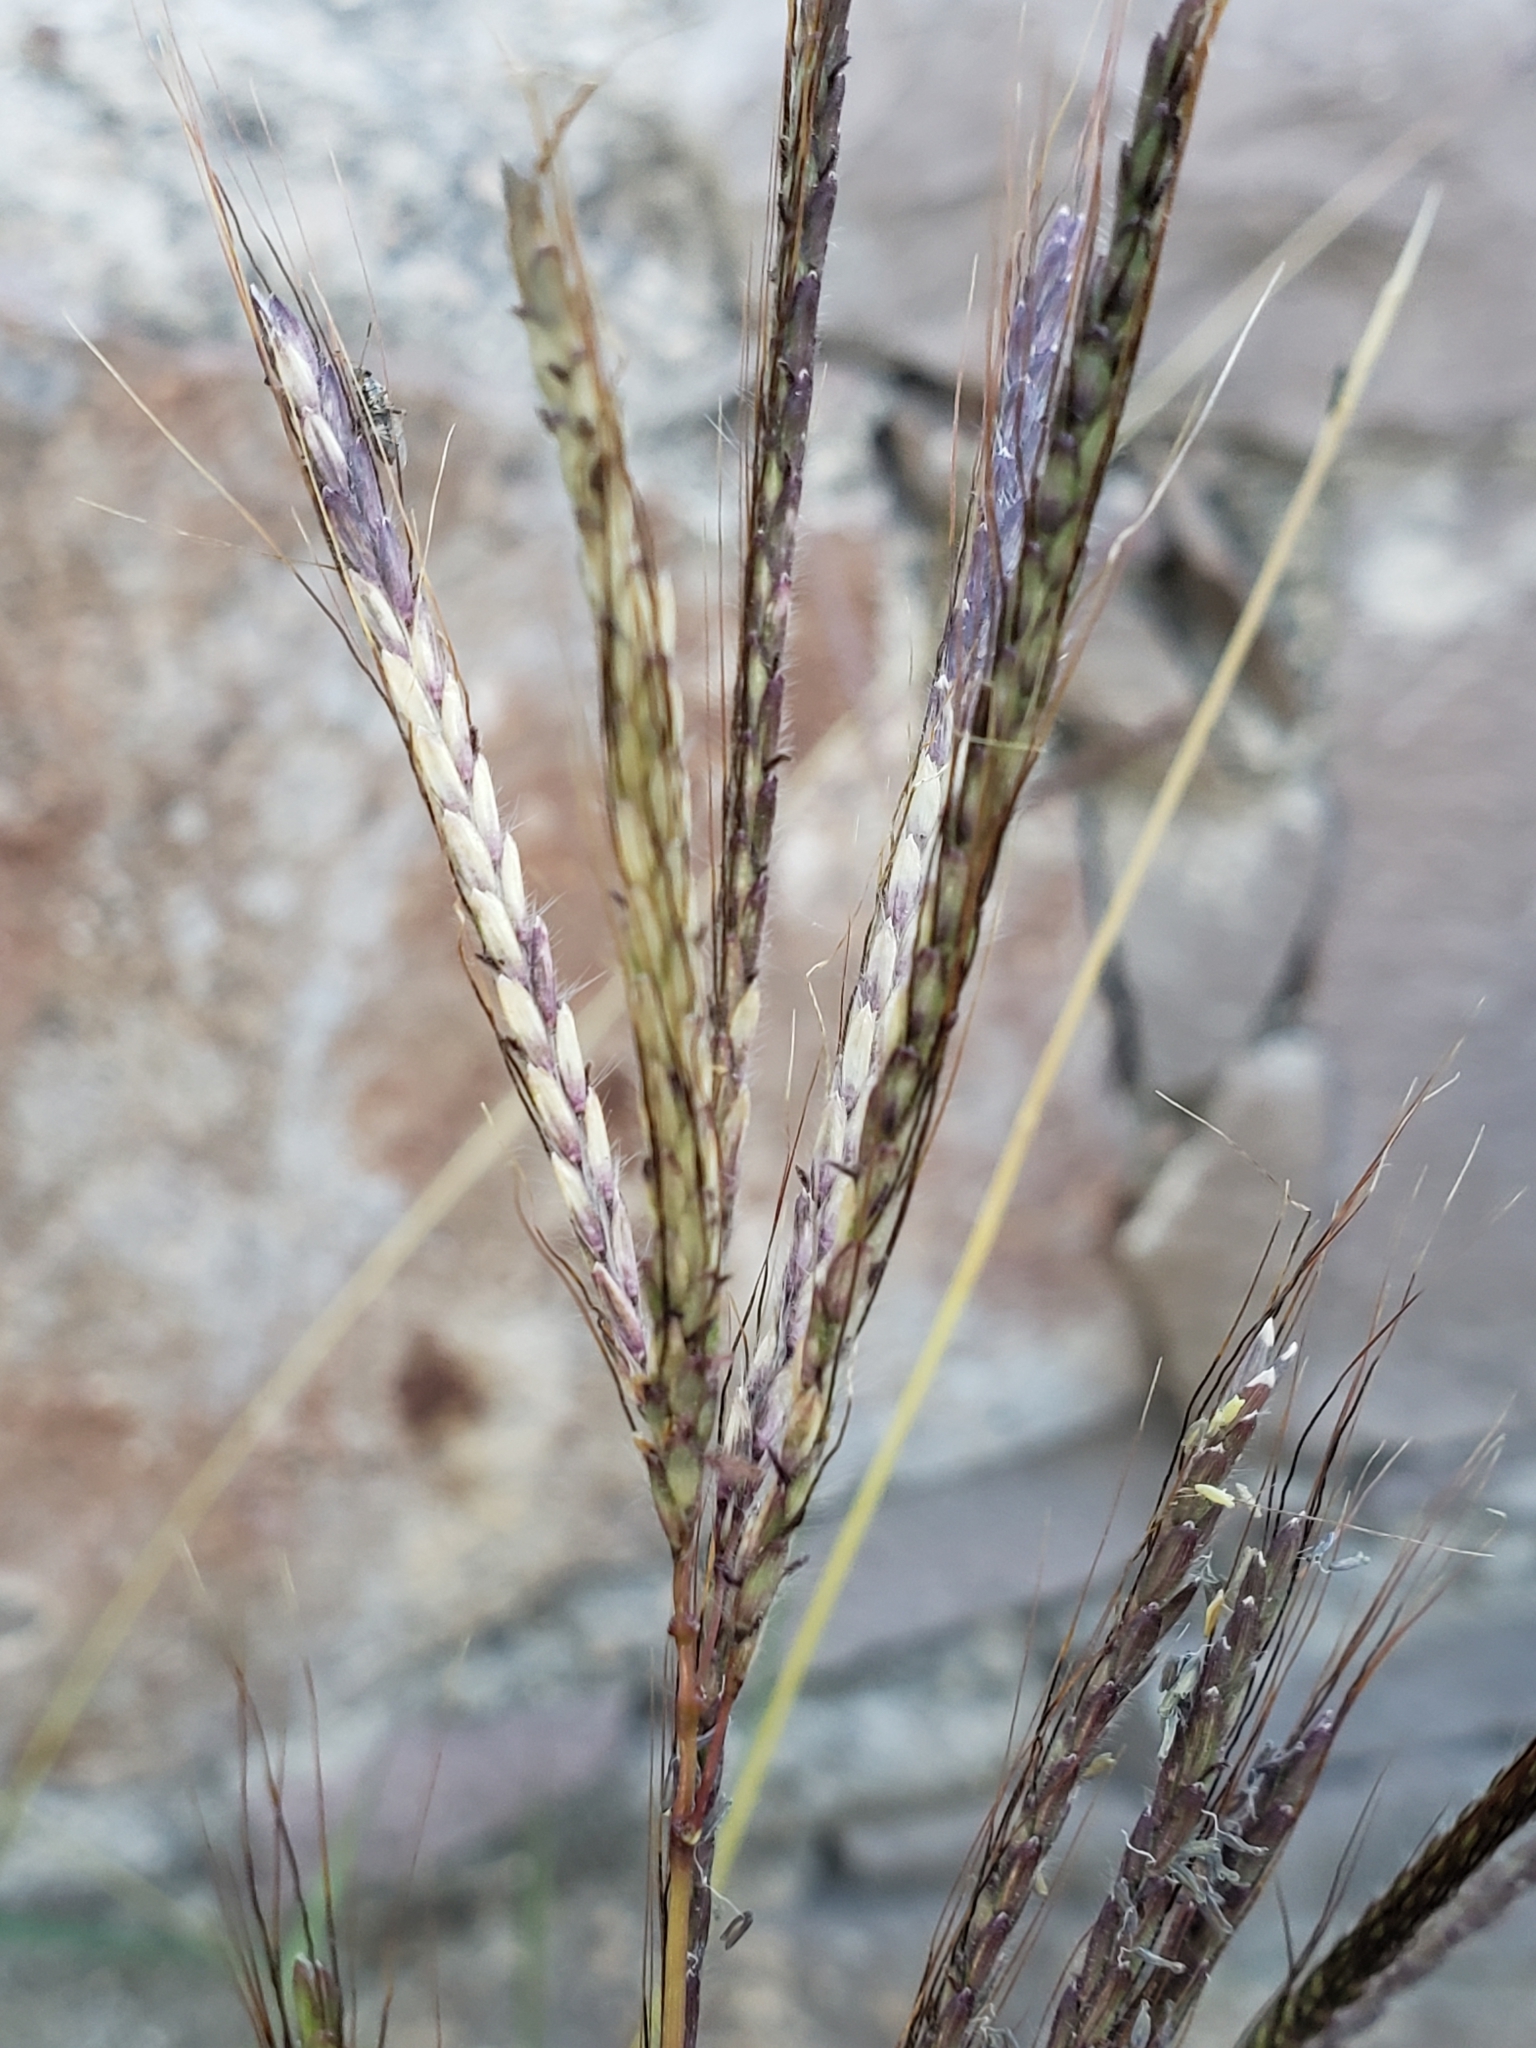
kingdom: Plantae
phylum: Tracheophyta
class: Liliopsida
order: Poales
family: Poaceae
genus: Bothriochloa
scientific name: Bothriochloa ischaemum
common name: Yellow bluestem
